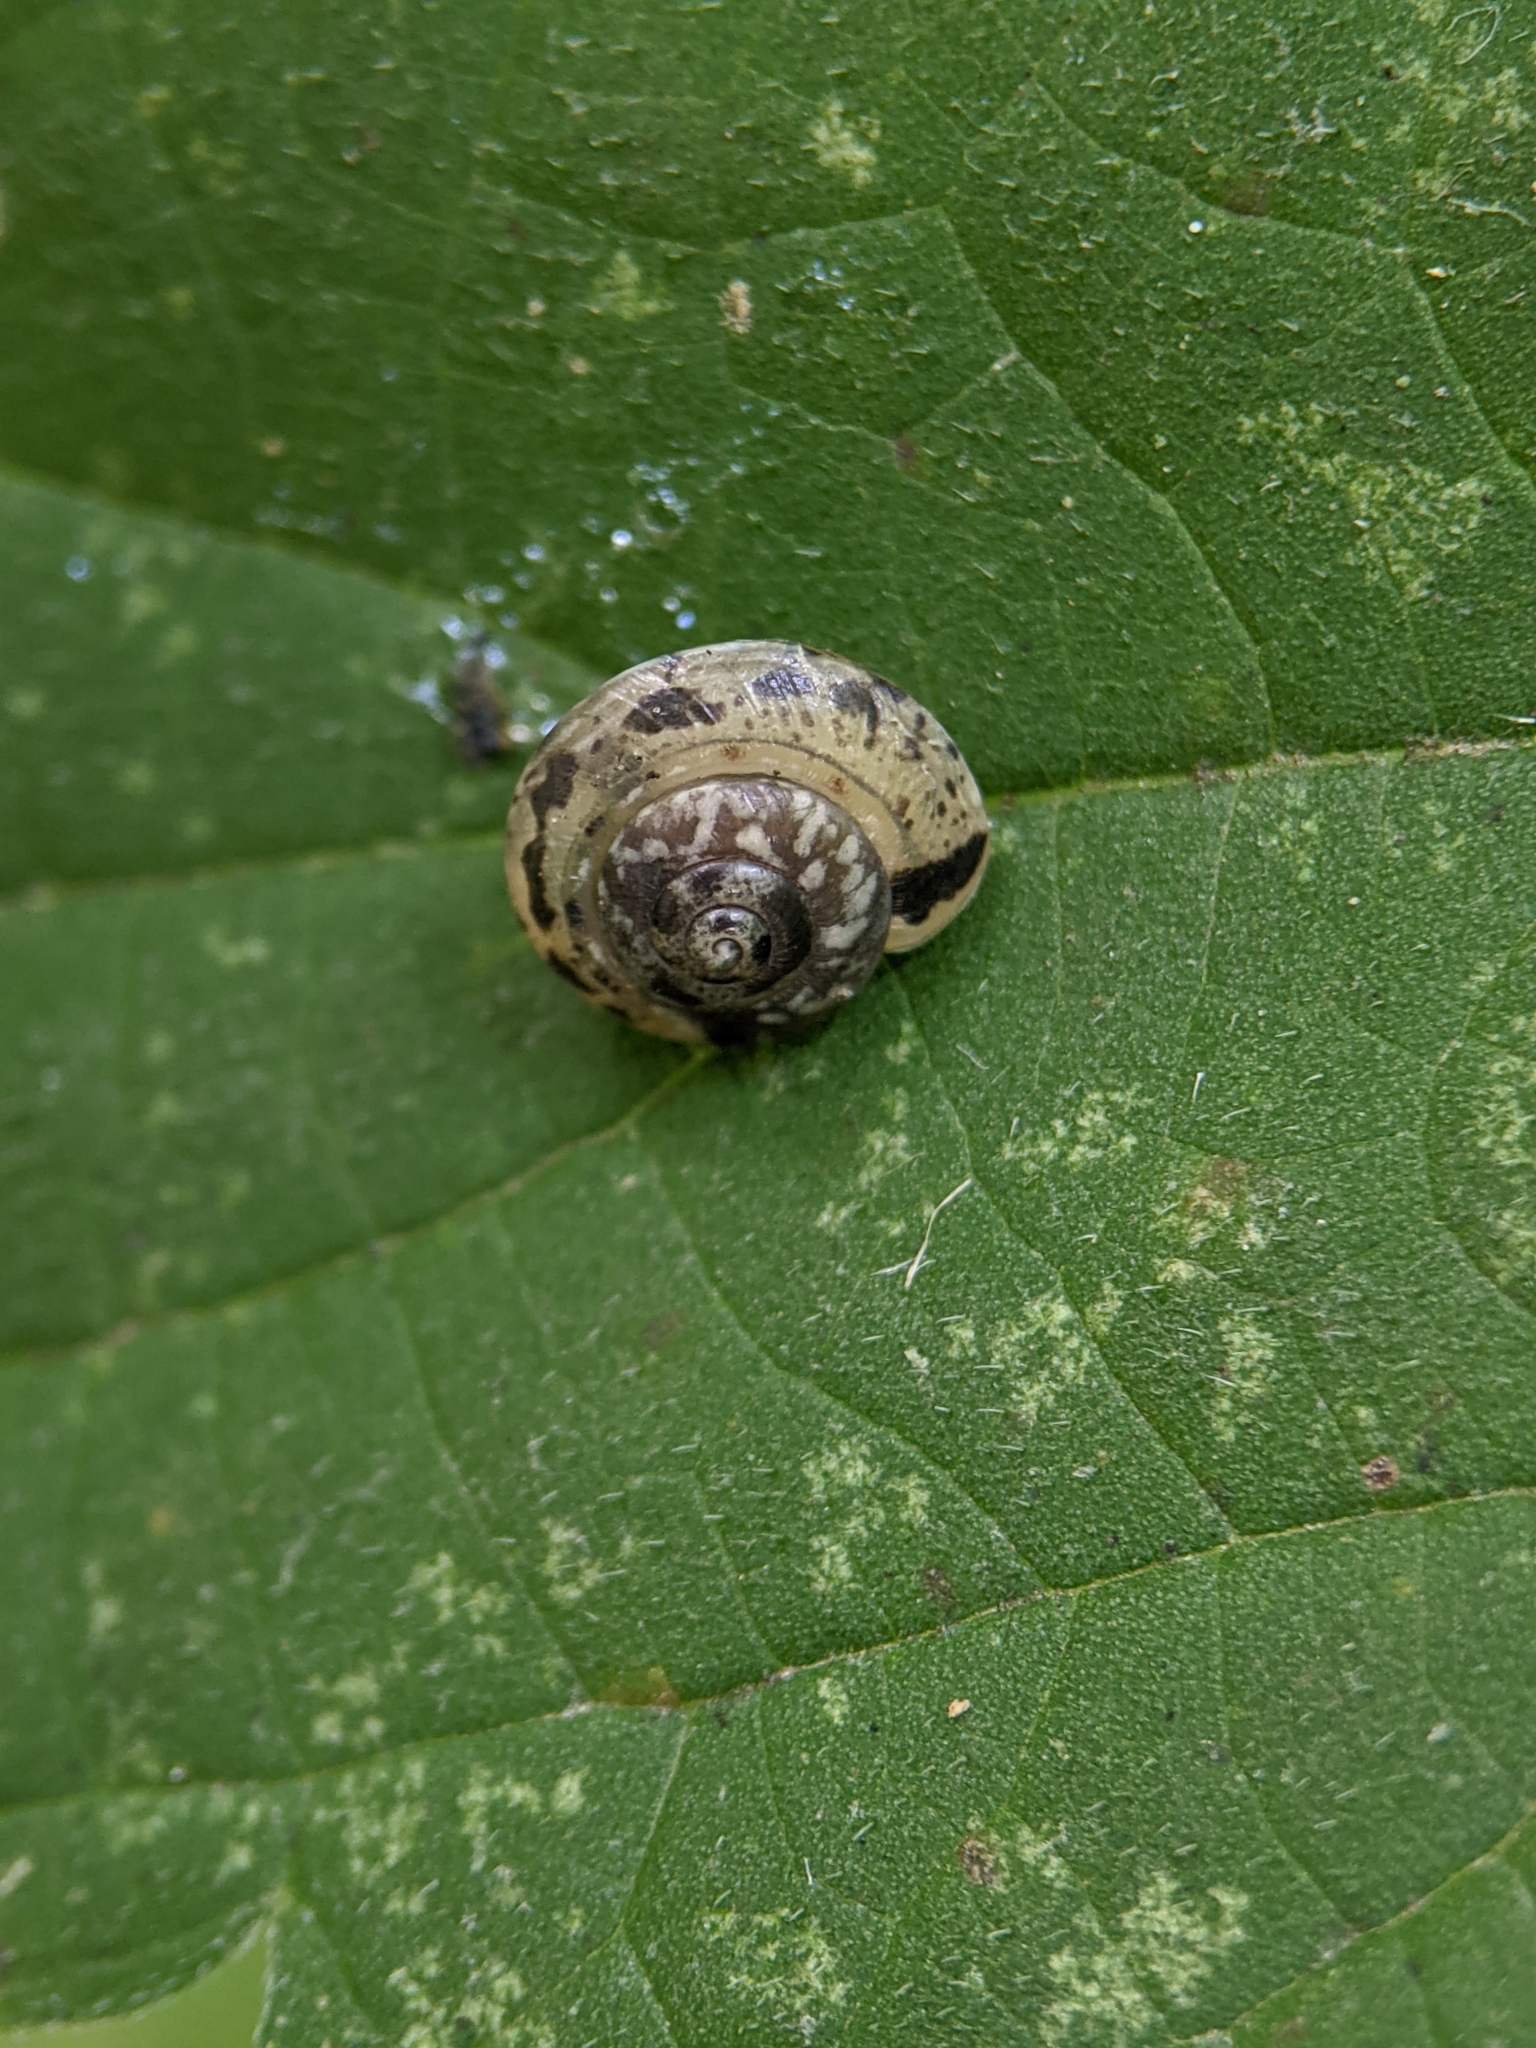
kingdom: Animalia
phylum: Mollusca
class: Gastropoda
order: Stylommatophora
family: Hygromiidae
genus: Hygromia
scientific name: Hygromia cinctella
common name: Girdled snail
